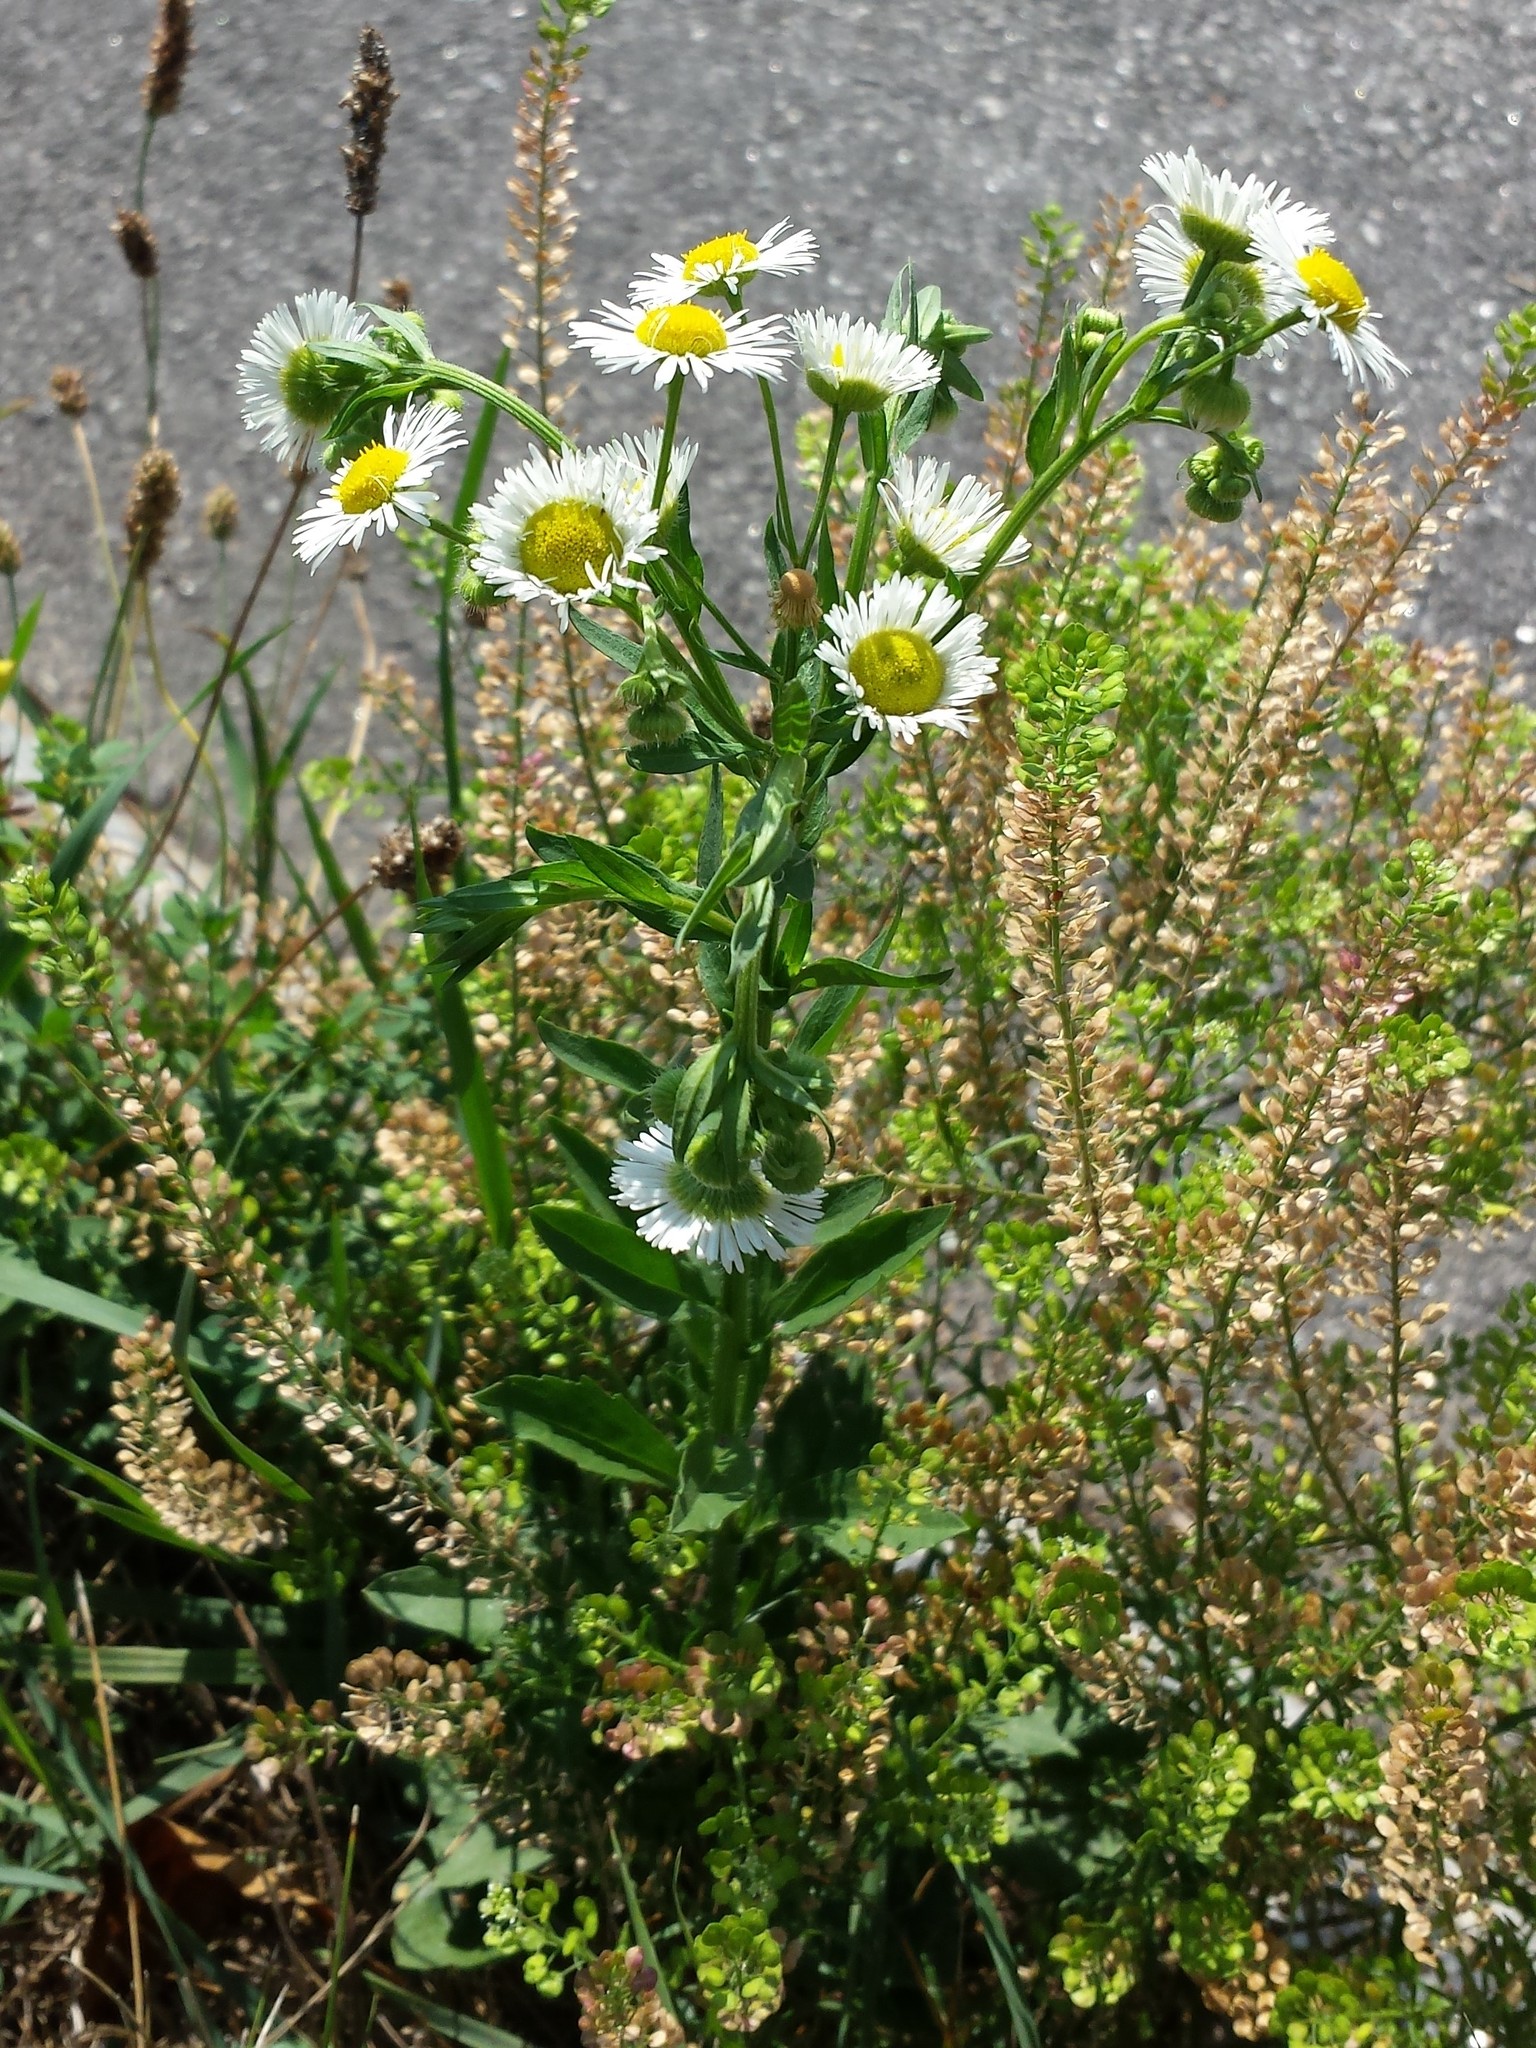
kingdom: Plantae
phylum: Tracheophyta
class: Magnoliopsida
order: Asterales
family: Asteraceae
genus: Erigeron
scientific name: Erigeron annuus
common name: Tall fleabane
